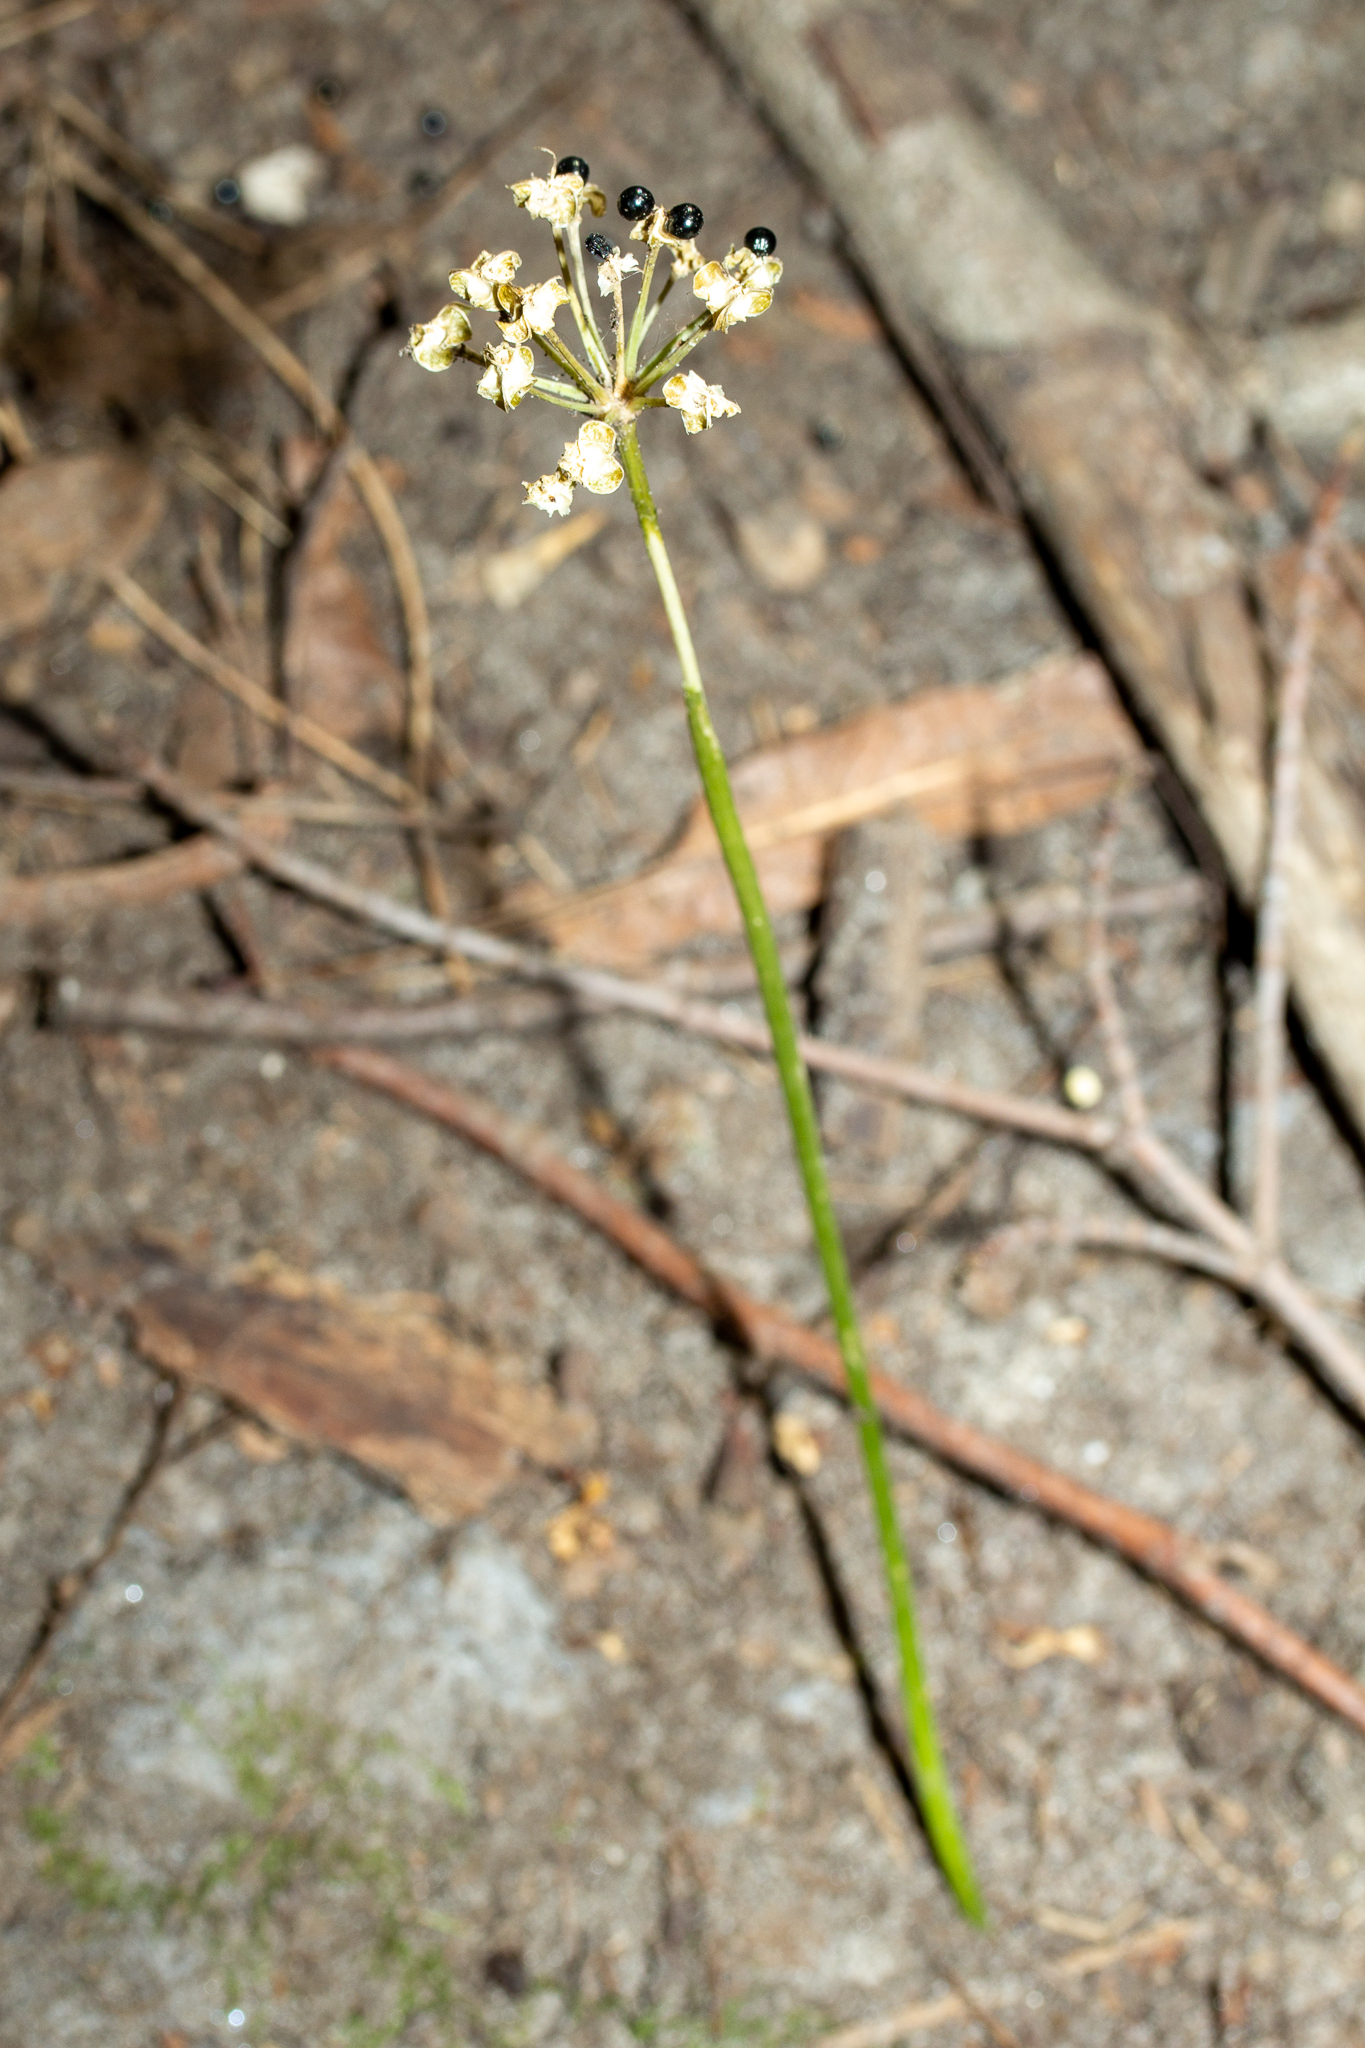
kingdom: Plantae
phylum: Tracheophyta
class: Liliopsida
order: Asparagales
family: Amaryllidaceae
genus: Allium
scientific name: Allium tricoccum
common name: Ramp
